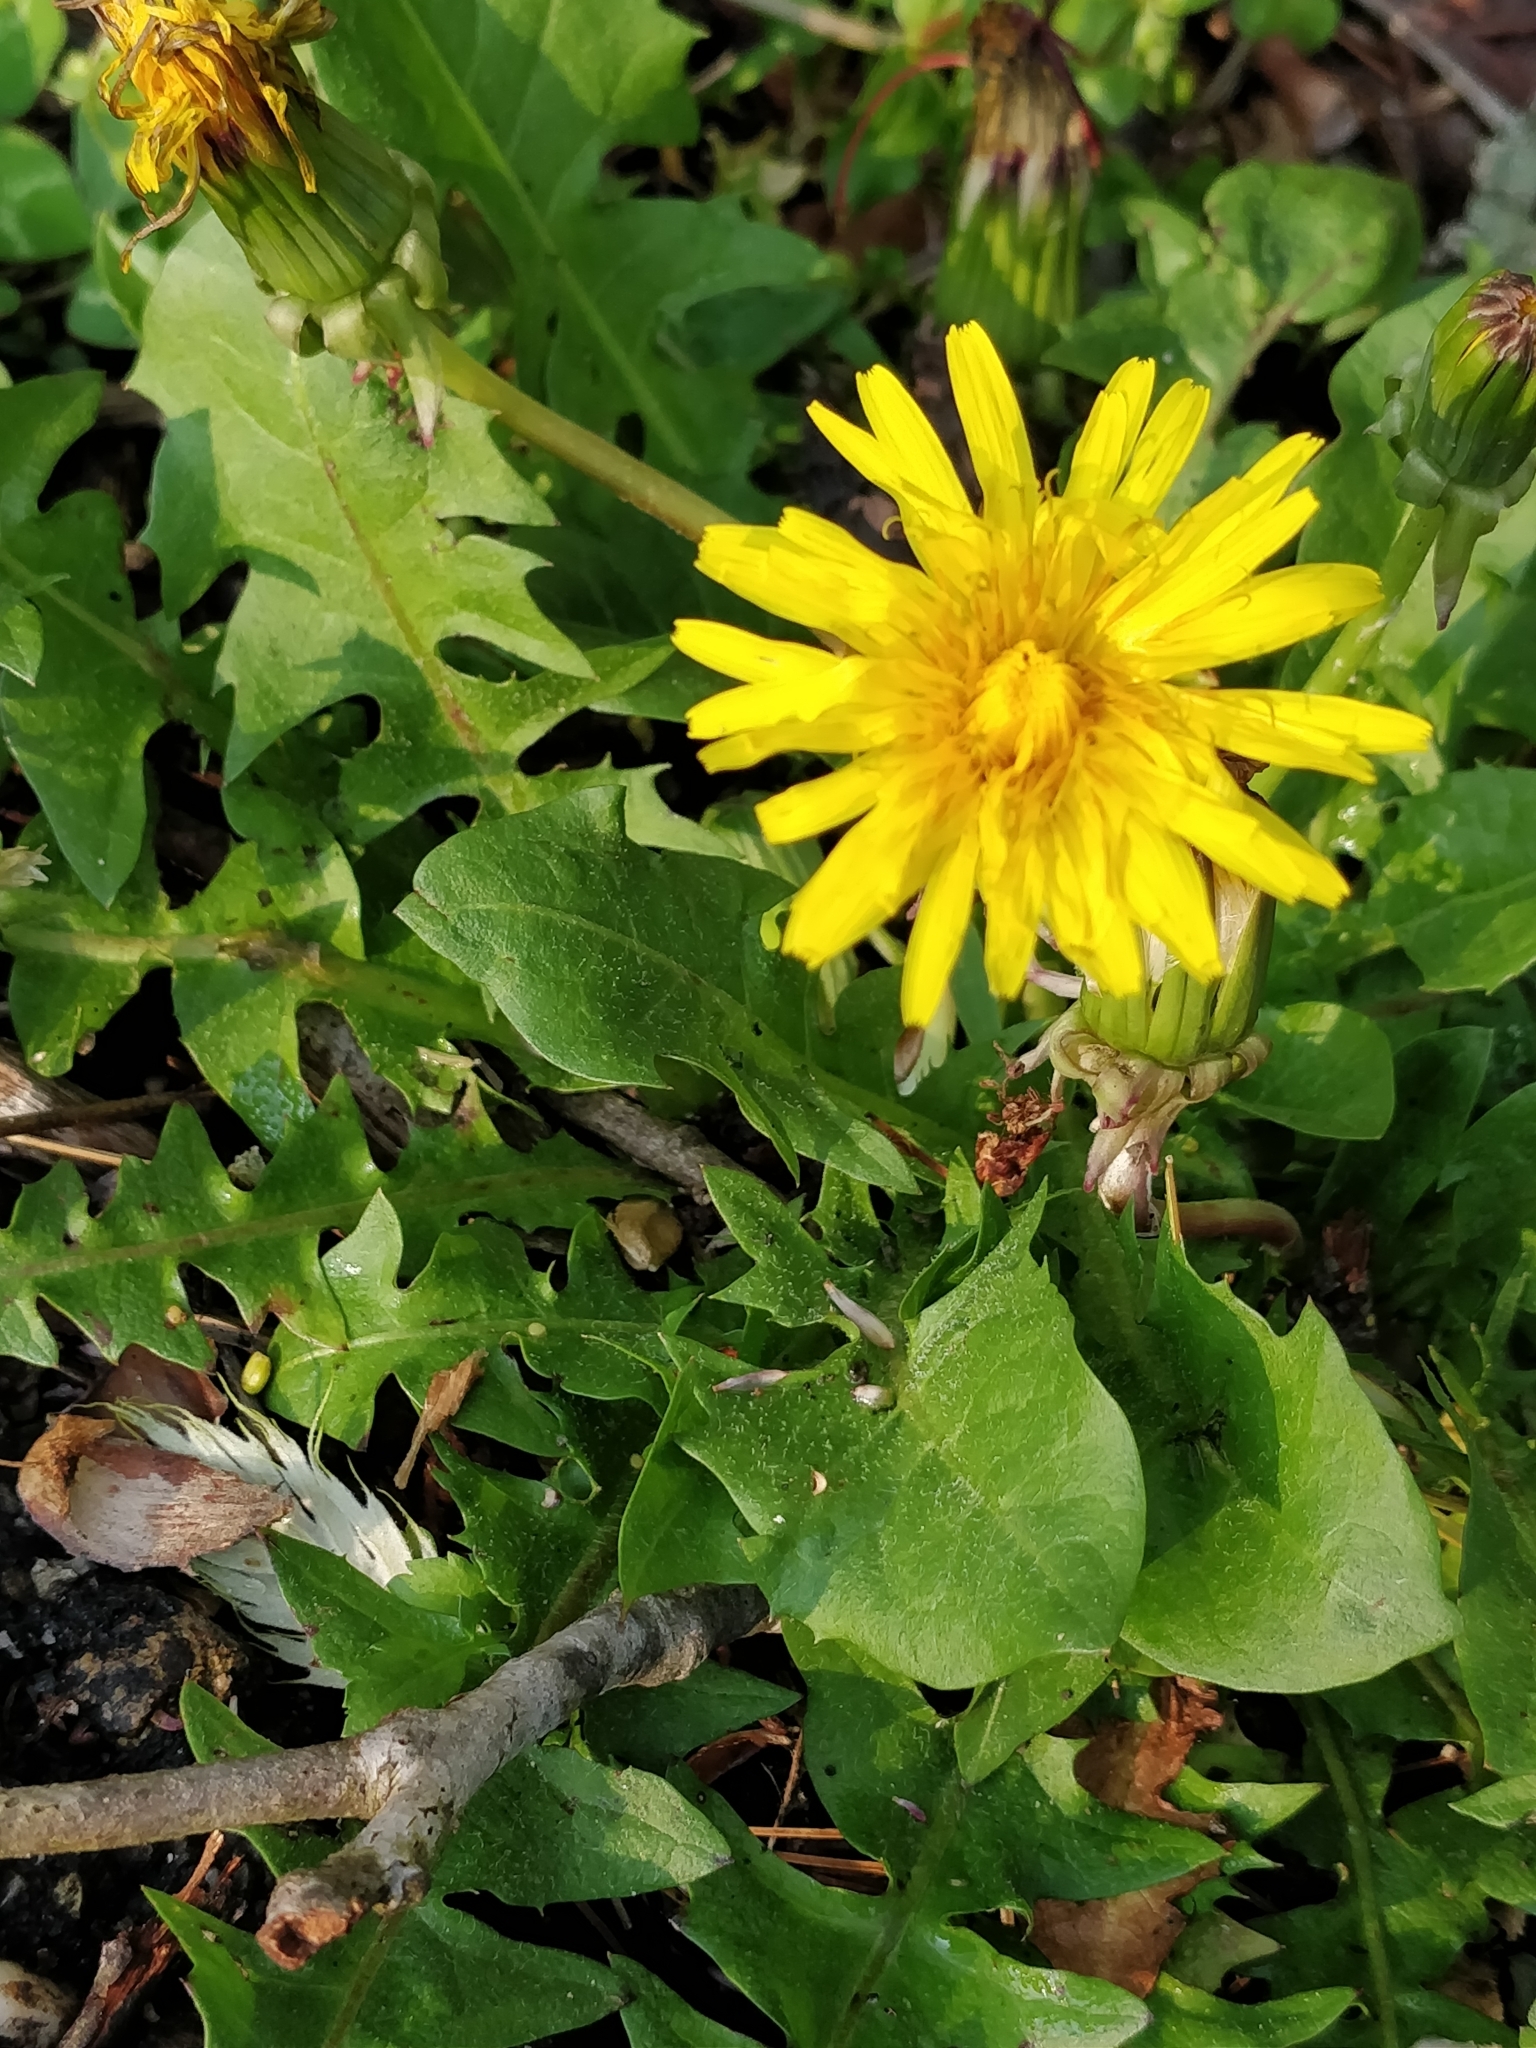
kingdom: Plantae
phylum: Tracheophyta
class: Magnoliopsida
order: Asterales
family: Asteraceae
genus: Taraxacum
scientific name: Taraxacum officinale
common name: Common dandelion
